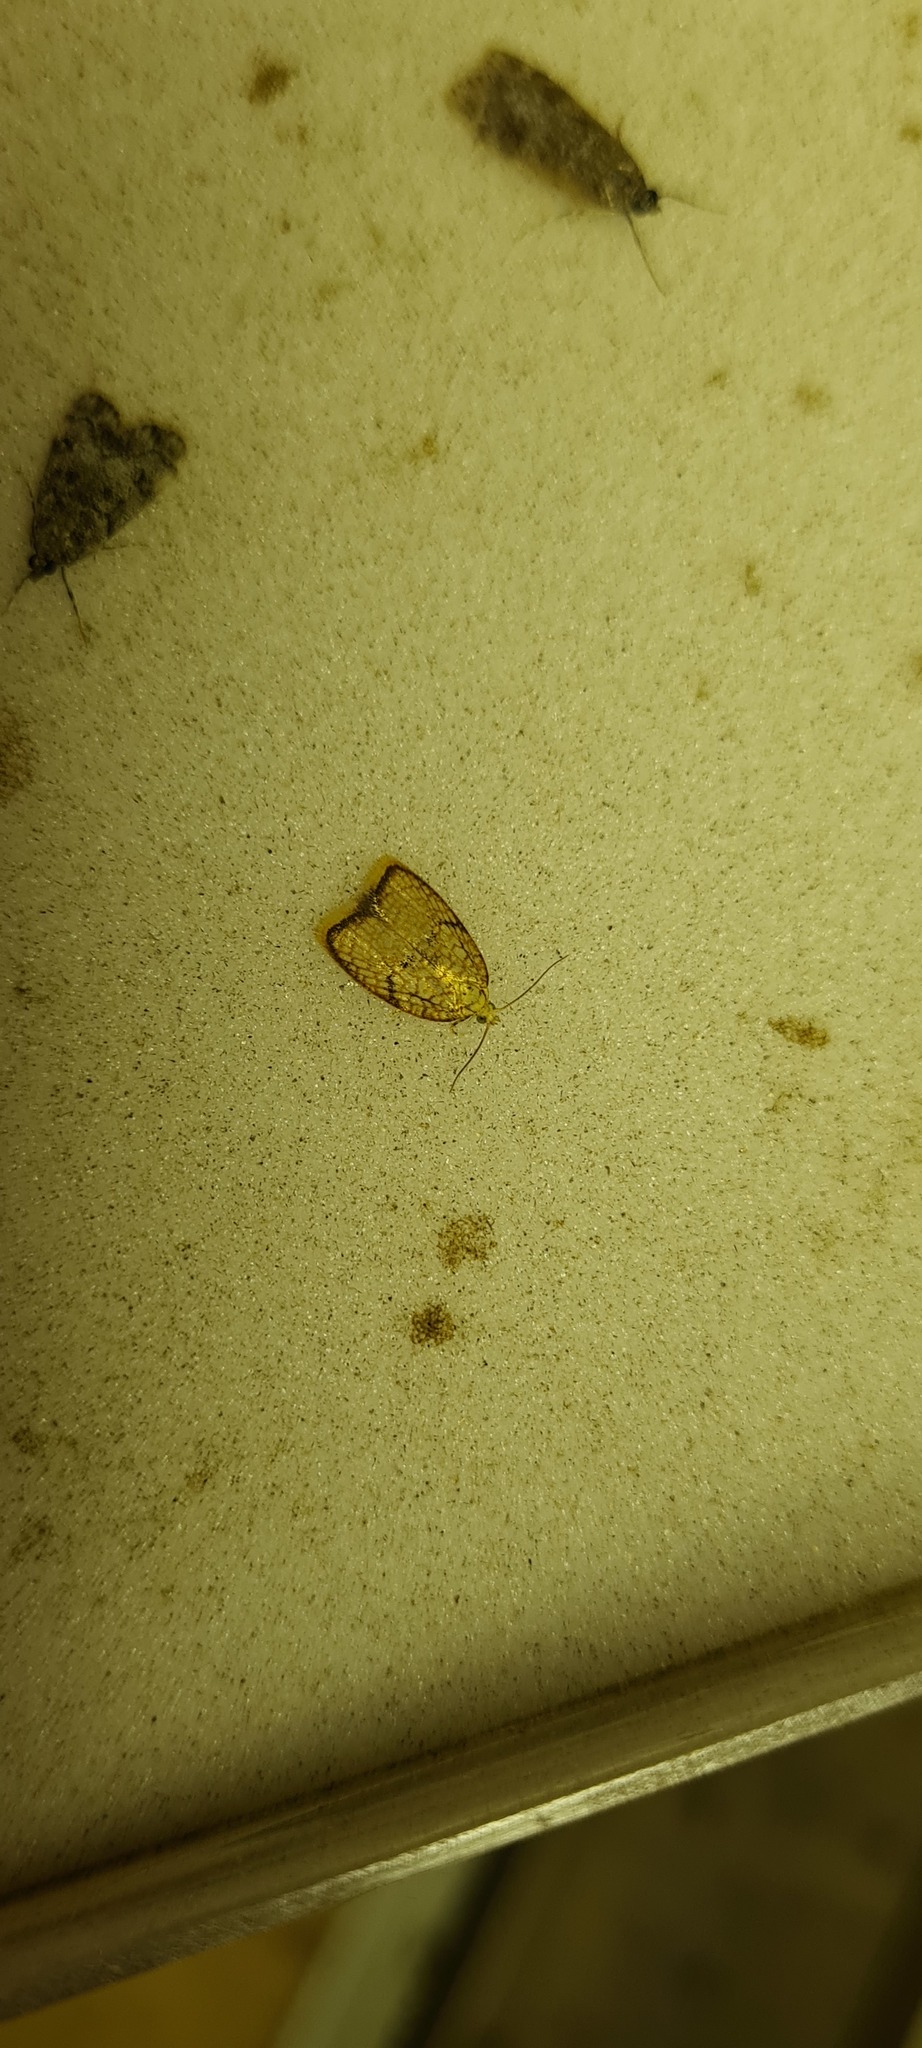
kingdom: Animalia
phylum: Arthropoda
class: Insecta
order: Lepidoptera
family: Tortricidae
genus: Acleris
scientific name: Acleris forsskaleana
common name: Maple button
